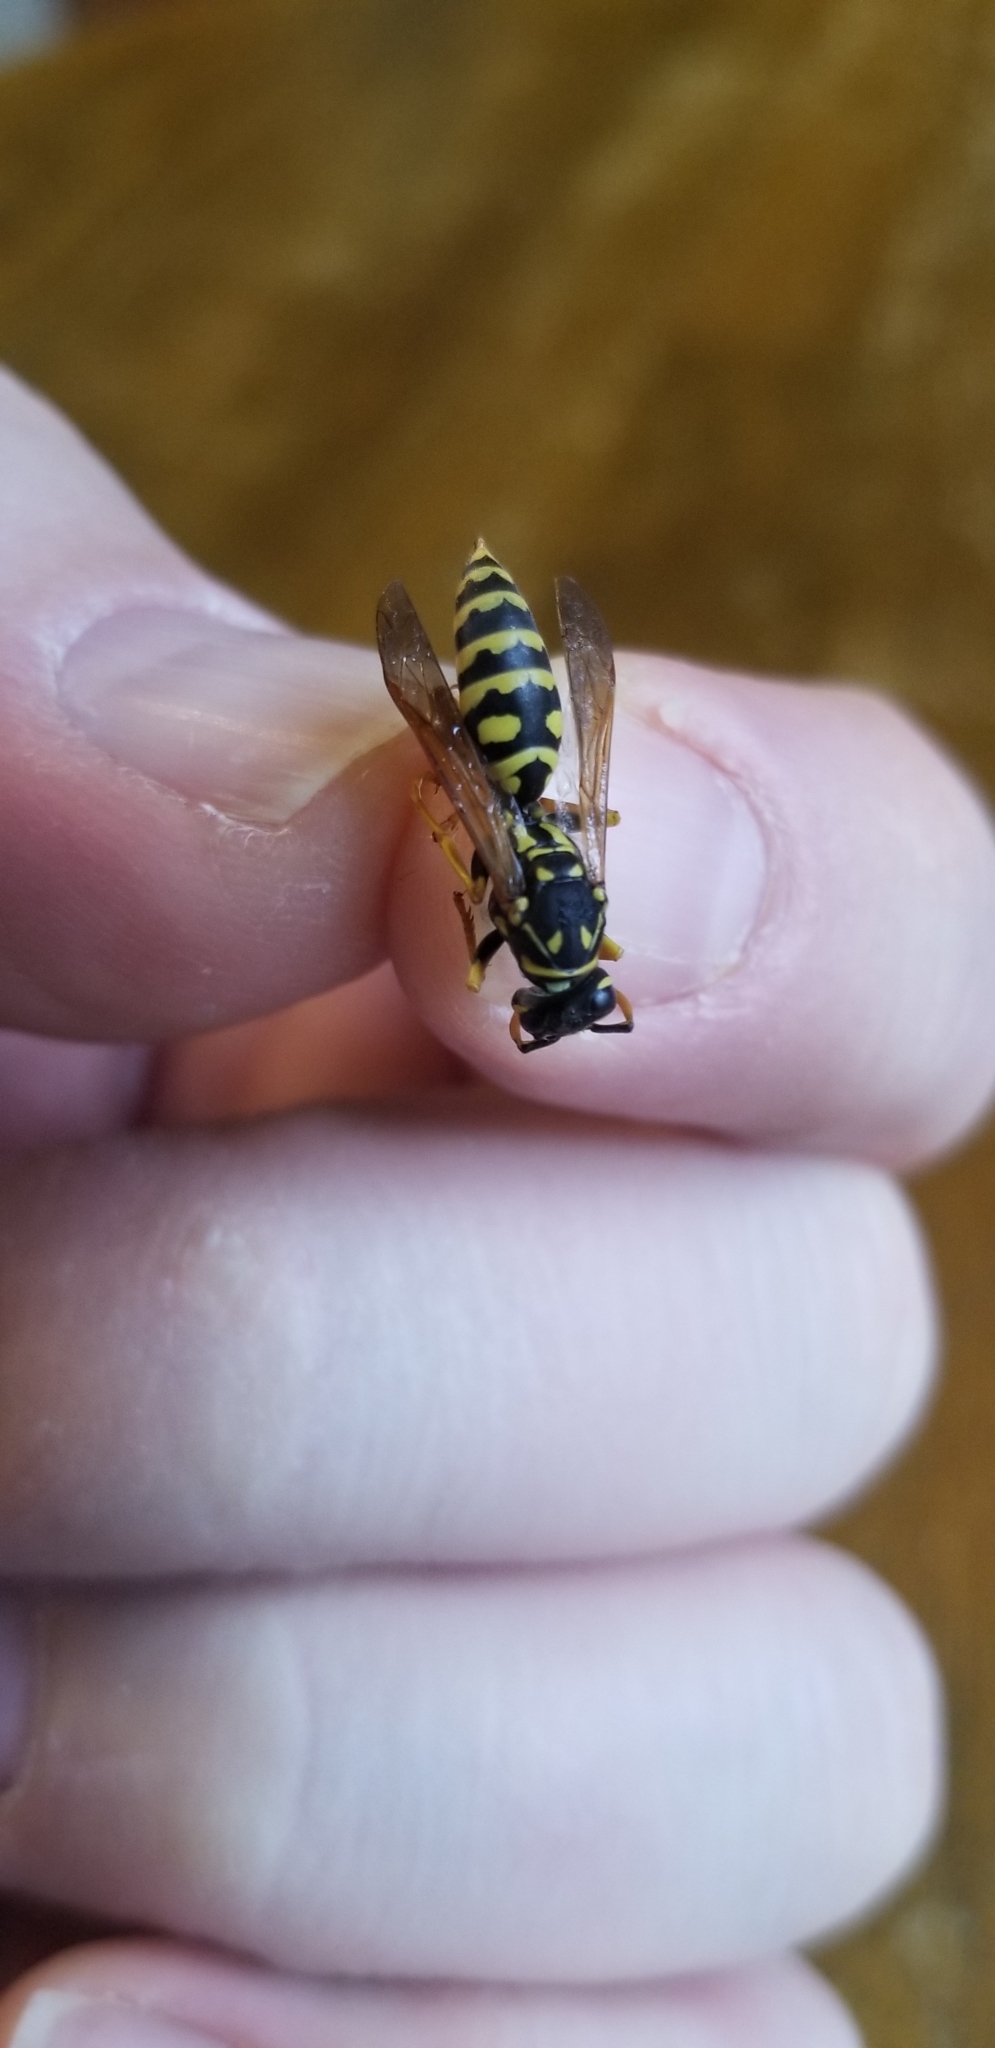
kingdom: Animalia
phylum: Arthropoda
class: Insecta
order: Hymenoptera
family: Eumenidae
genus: Polistes
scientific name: Polistes dominula
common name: Paper wasp
